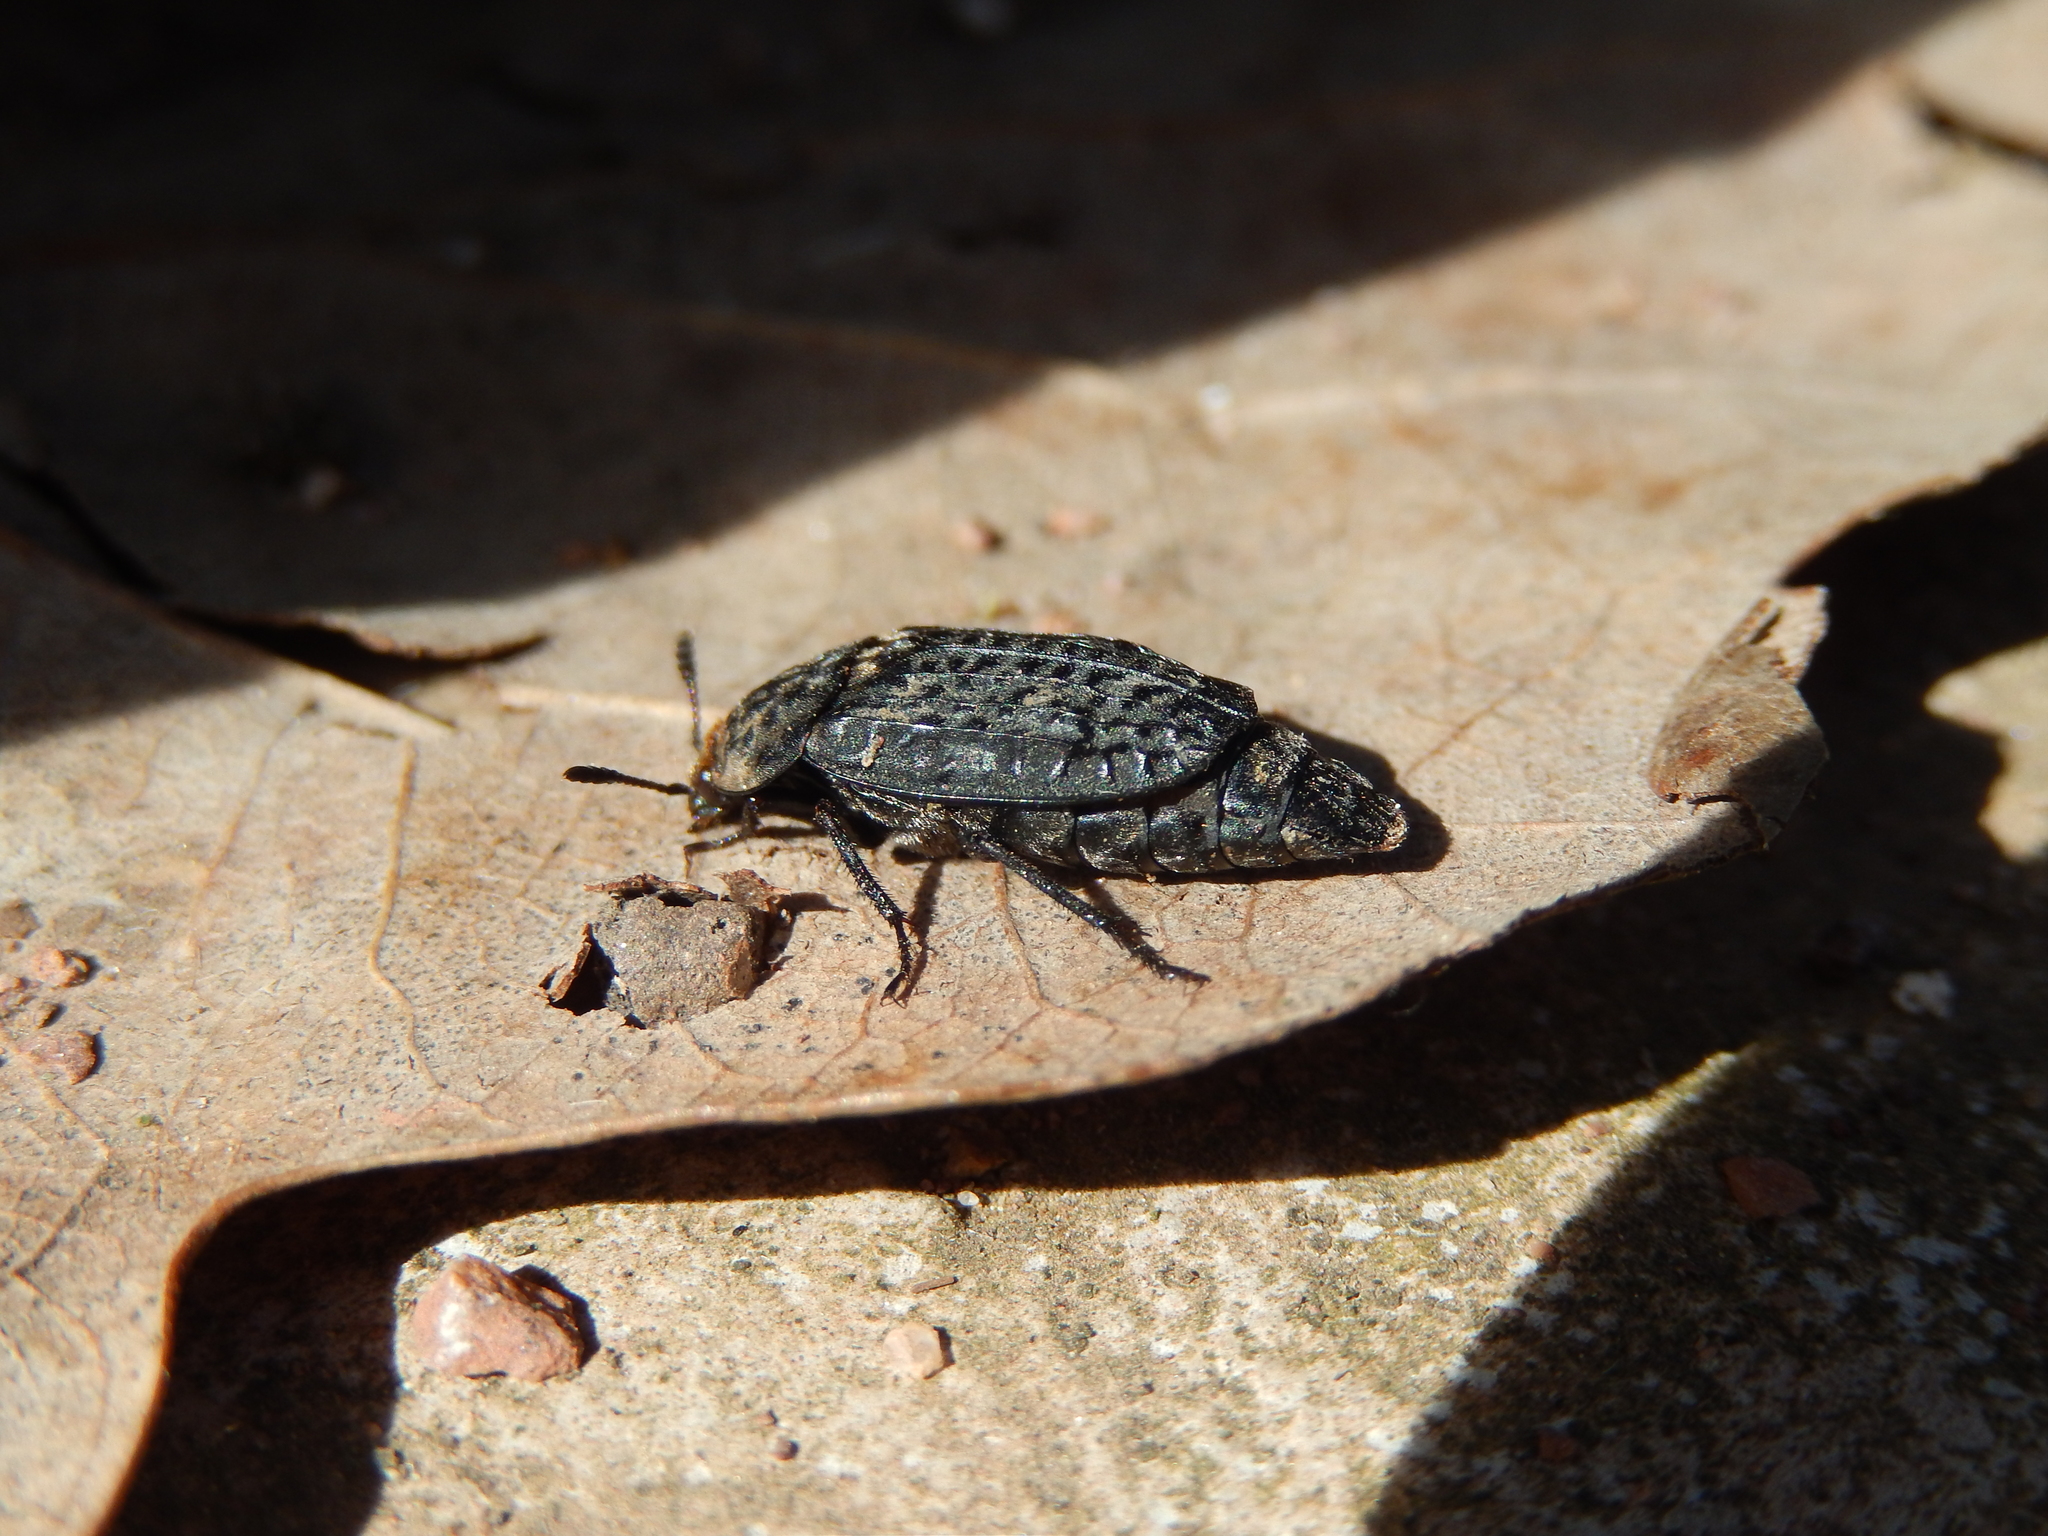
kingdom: Animalia
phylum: Arthropoda
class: Insecta
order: Coleoptera
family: Staphylinidae
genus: Thanatophilus
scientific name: Thanatophilus rugosus
